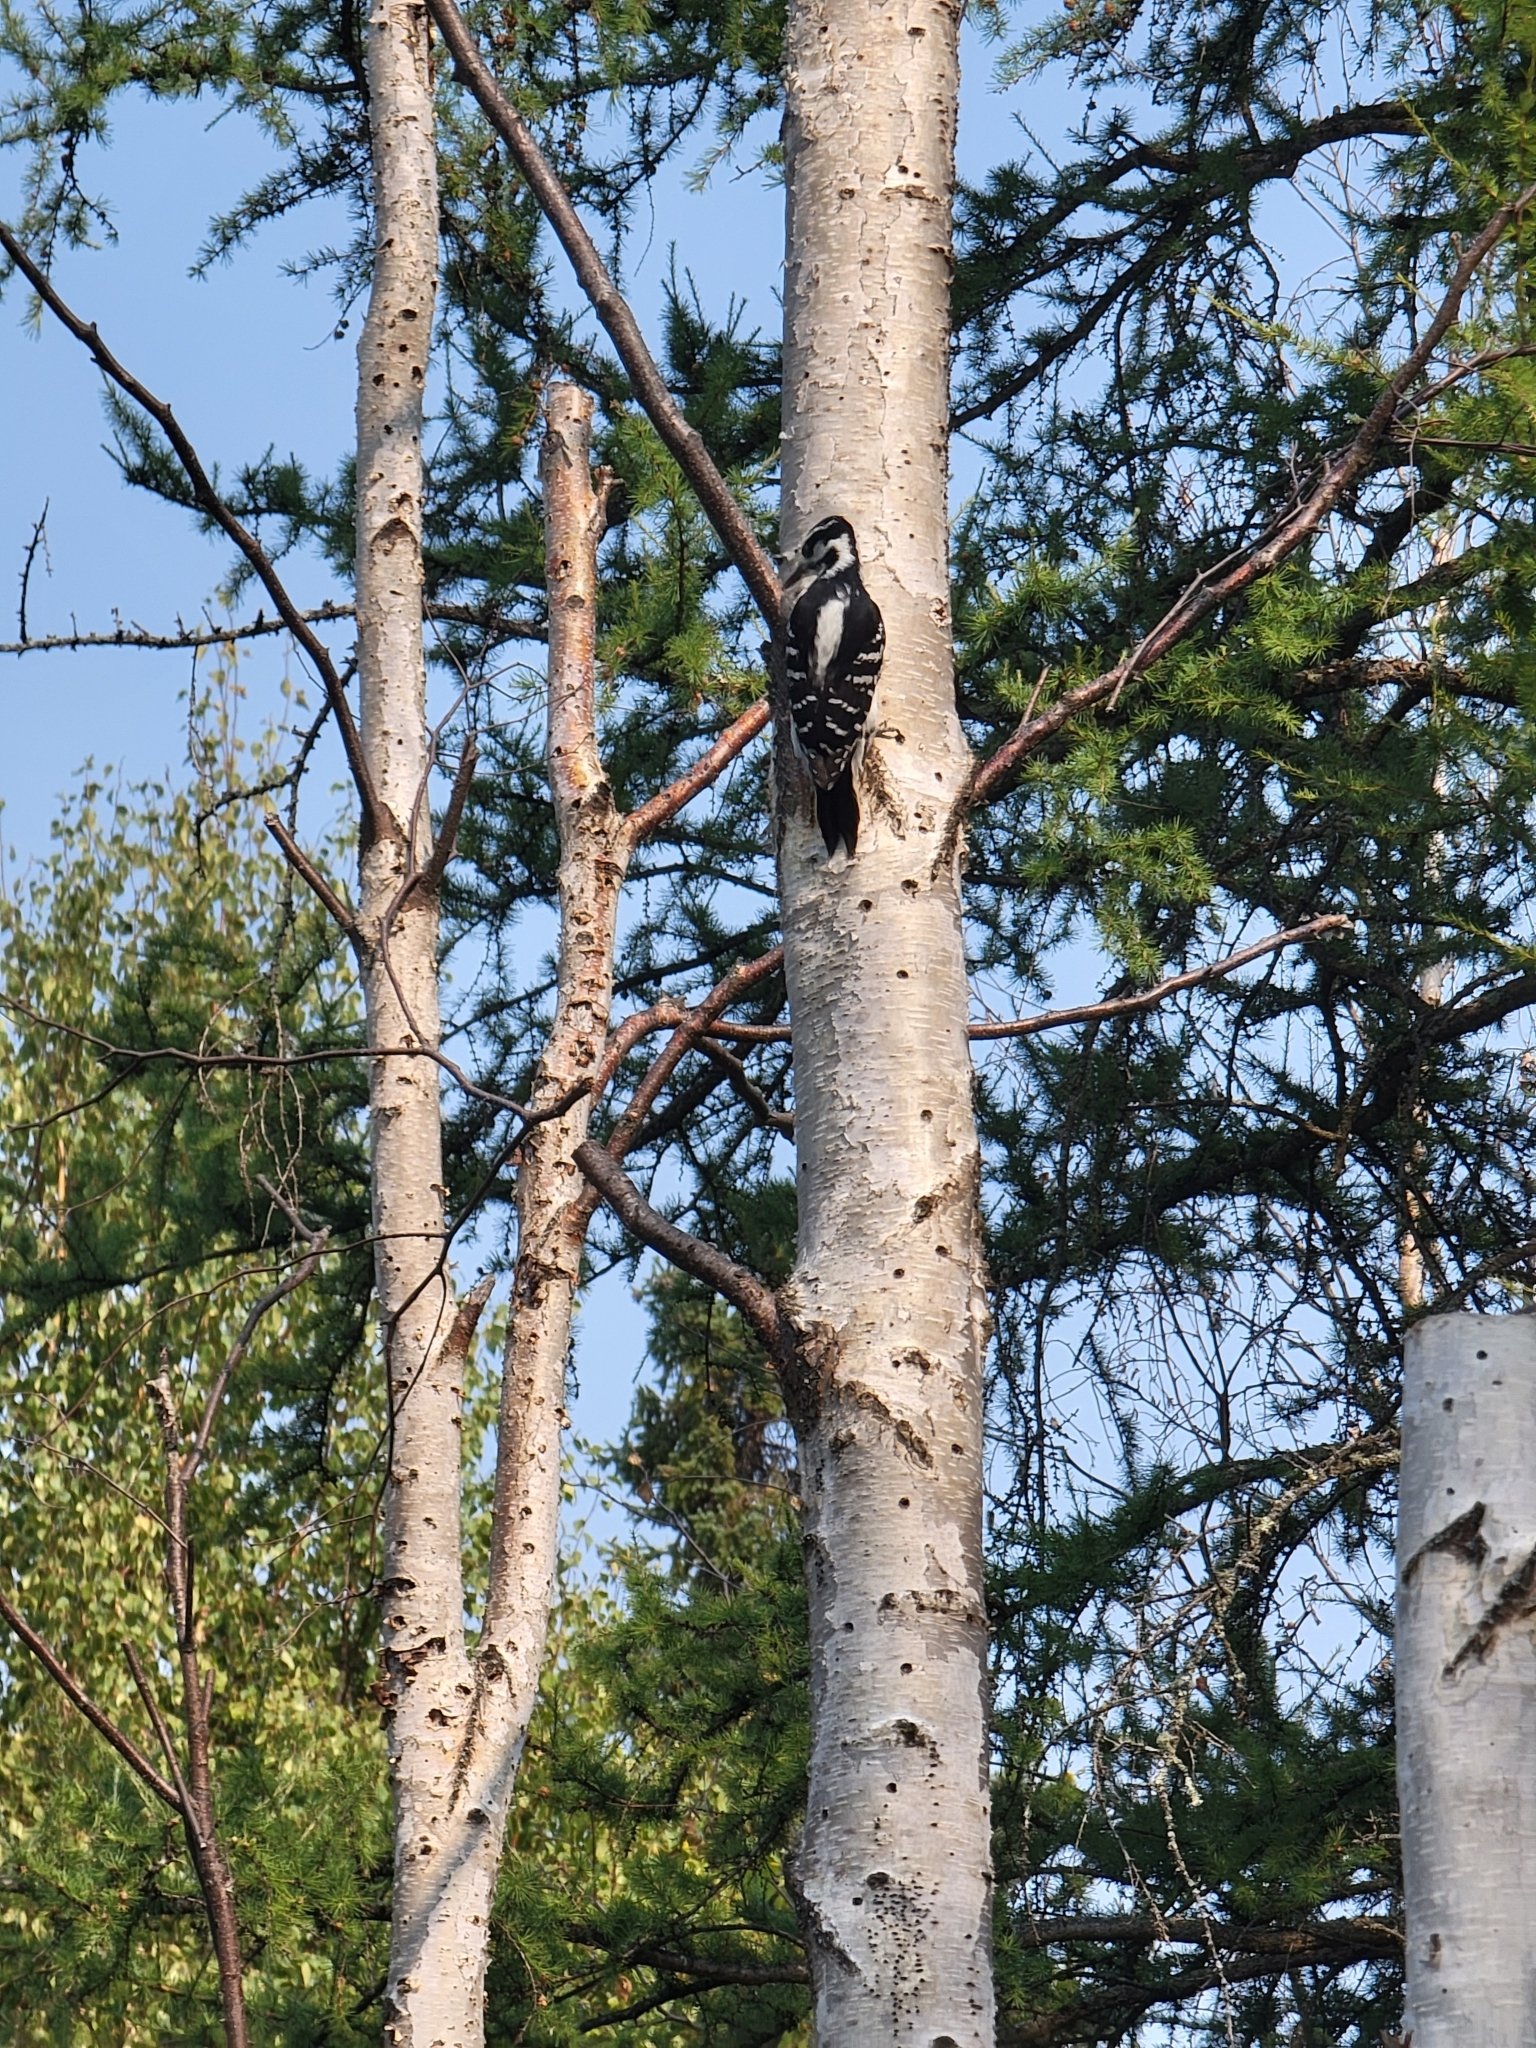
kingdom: Animalia
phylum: Chordata
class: Aves
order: Piciformes
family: Picidae
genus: Leuconotopicus
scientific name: Leuconotopicus villosus
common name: Hairy woodpecker
